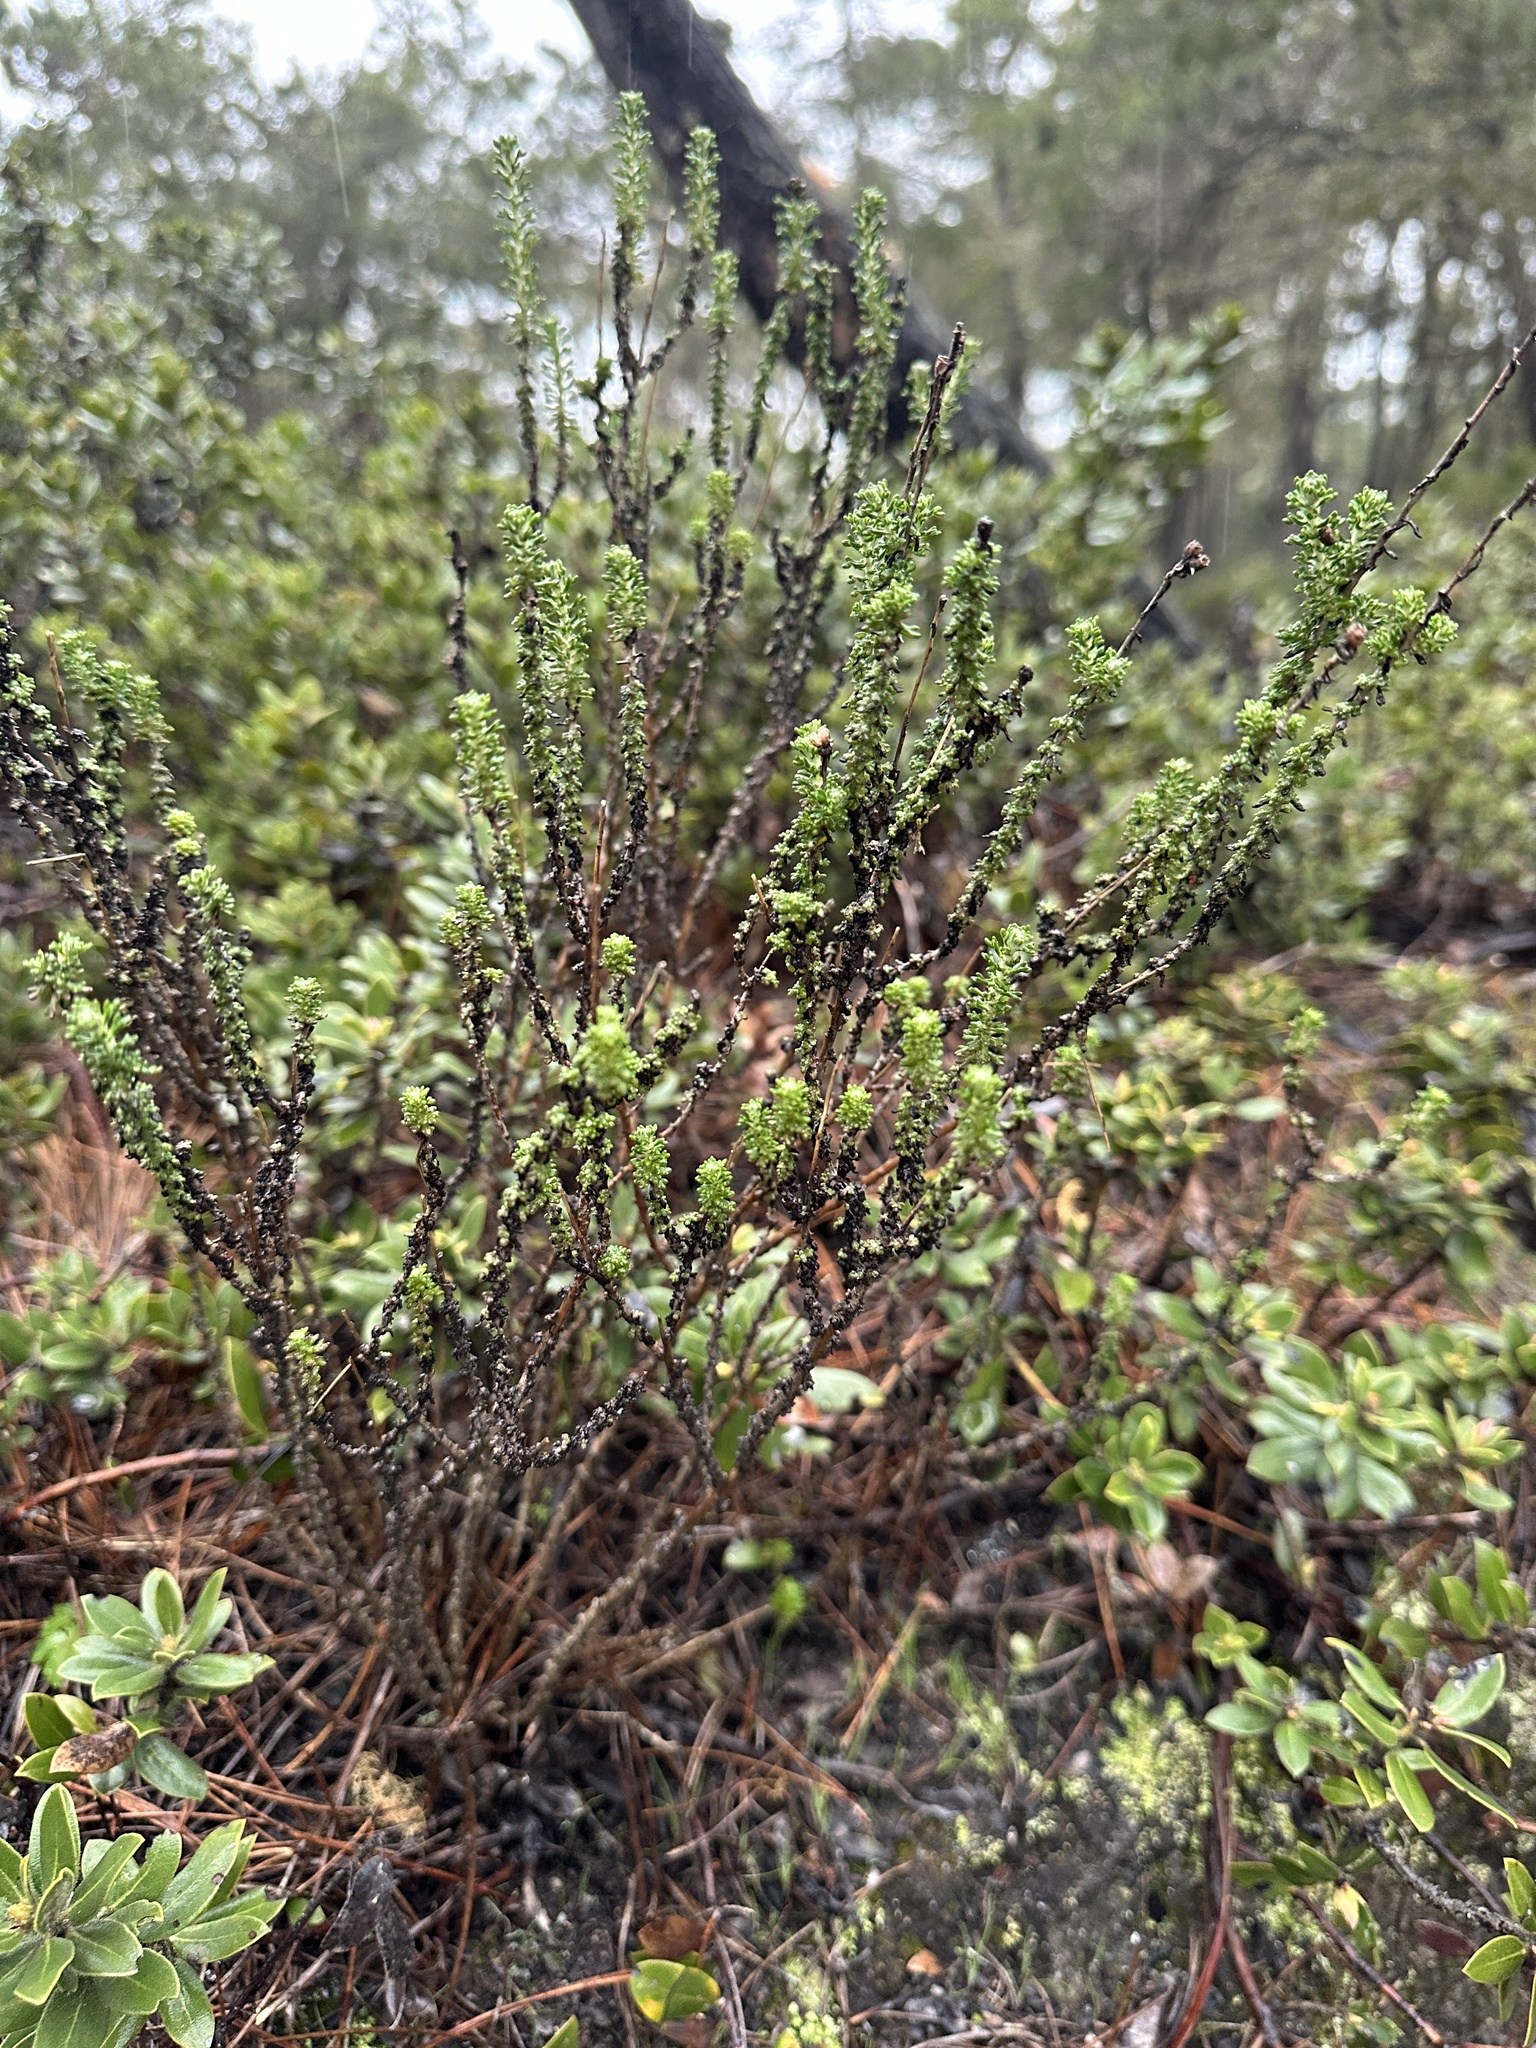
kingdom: Plantae
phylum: Tracheophyta
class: Magnoliopsida
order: Asterales
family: Asteraceae
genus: Eriophyllum
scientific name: Eriophyllum confertiflorum
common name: Golden-yarrow
